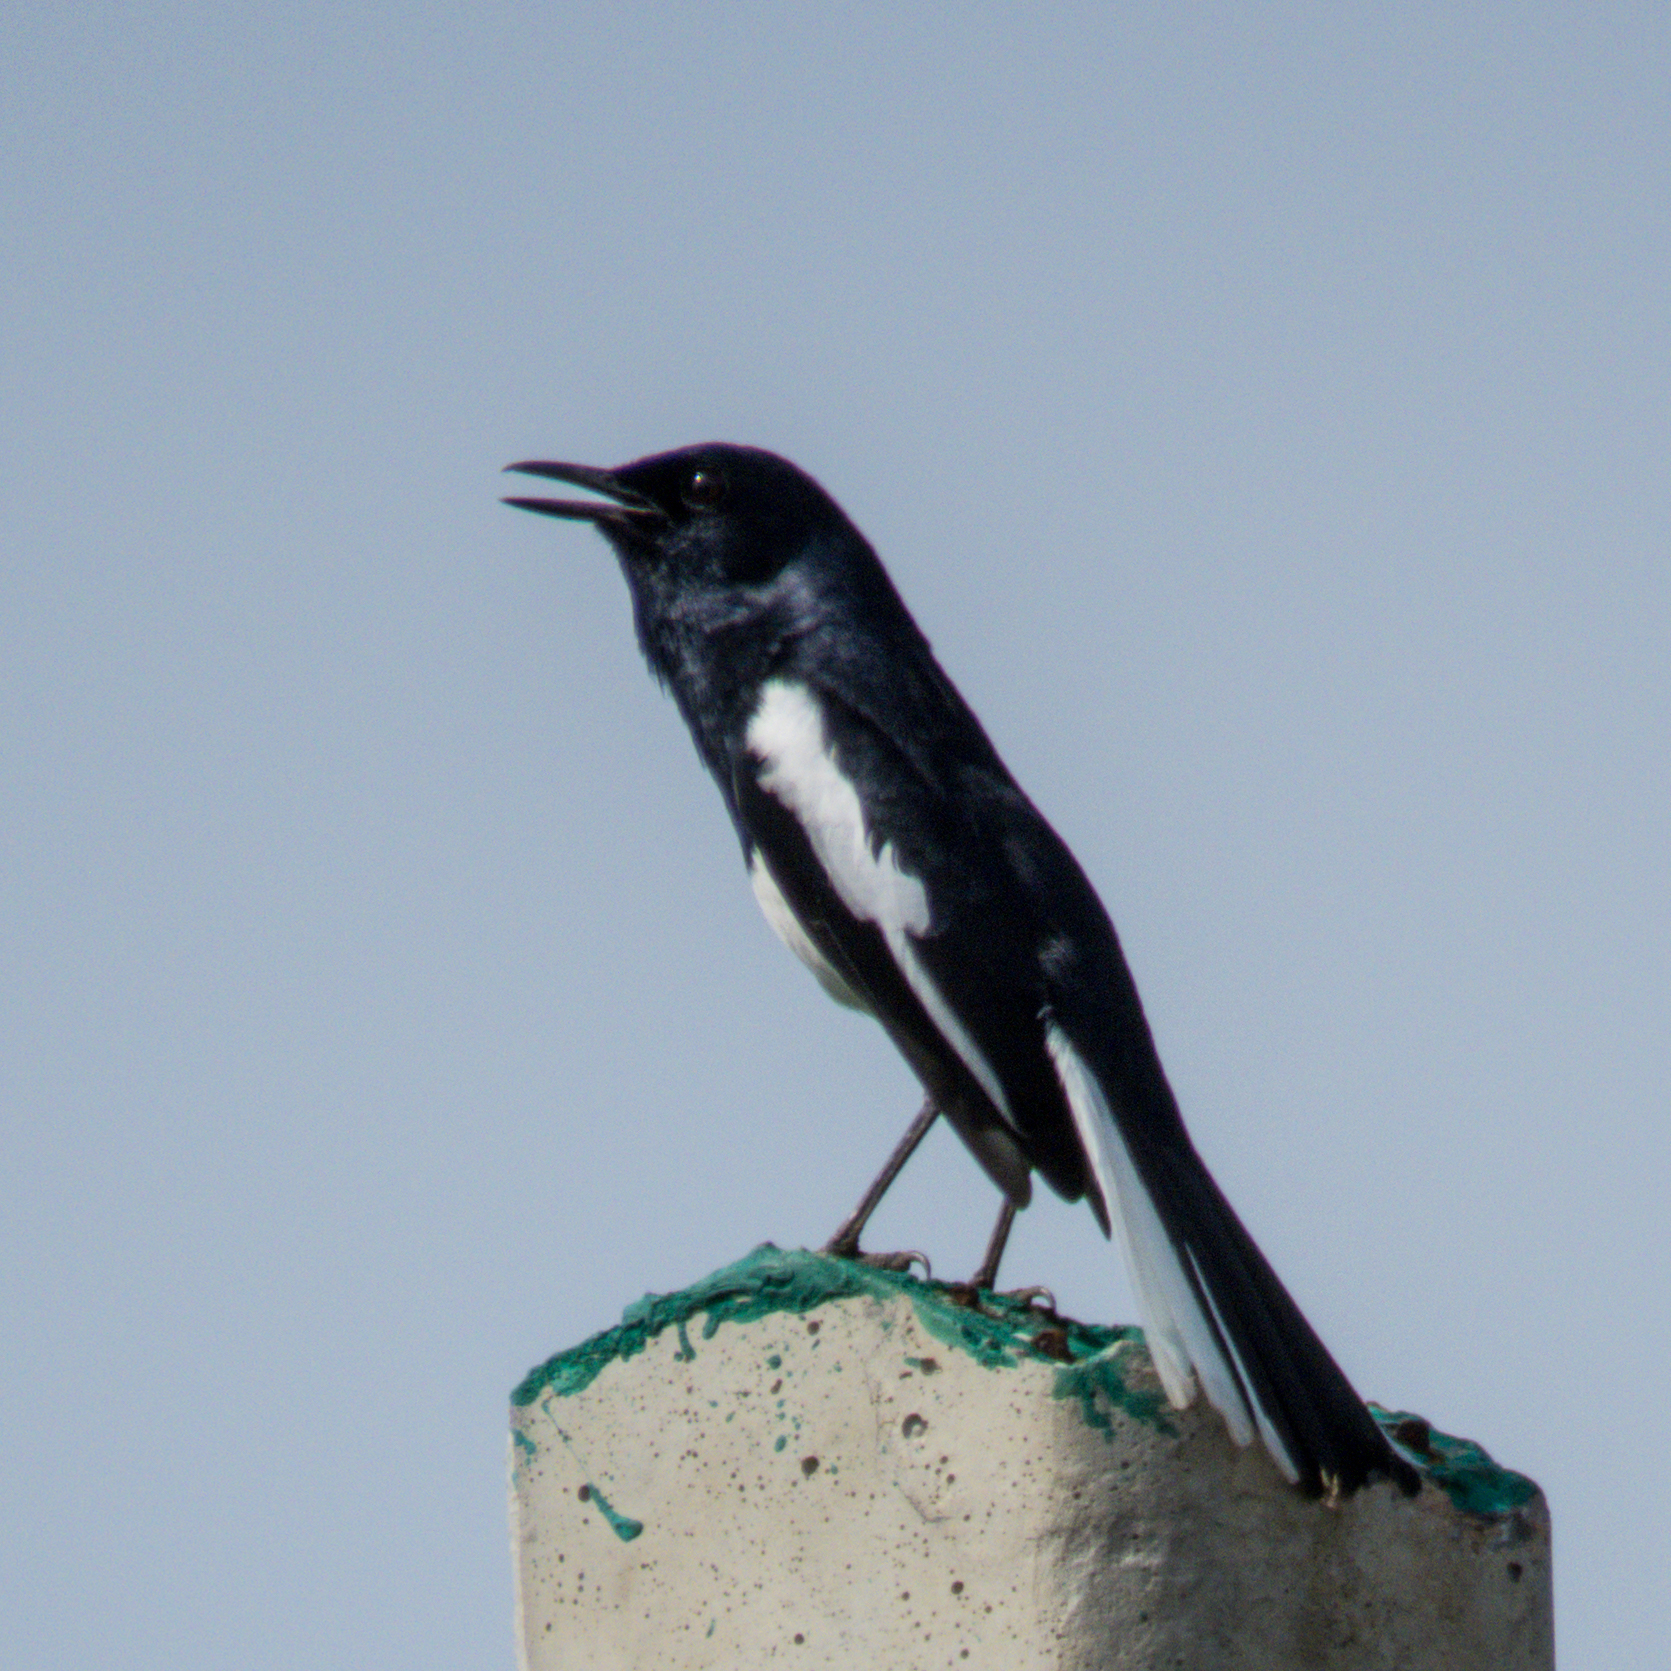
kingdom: Animalia
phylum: Chordata
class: Aves
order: Passeriformes
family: Muscicapidae
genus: Copsychus
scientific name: Copsychus saularis
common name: Oriental magpie-robin
